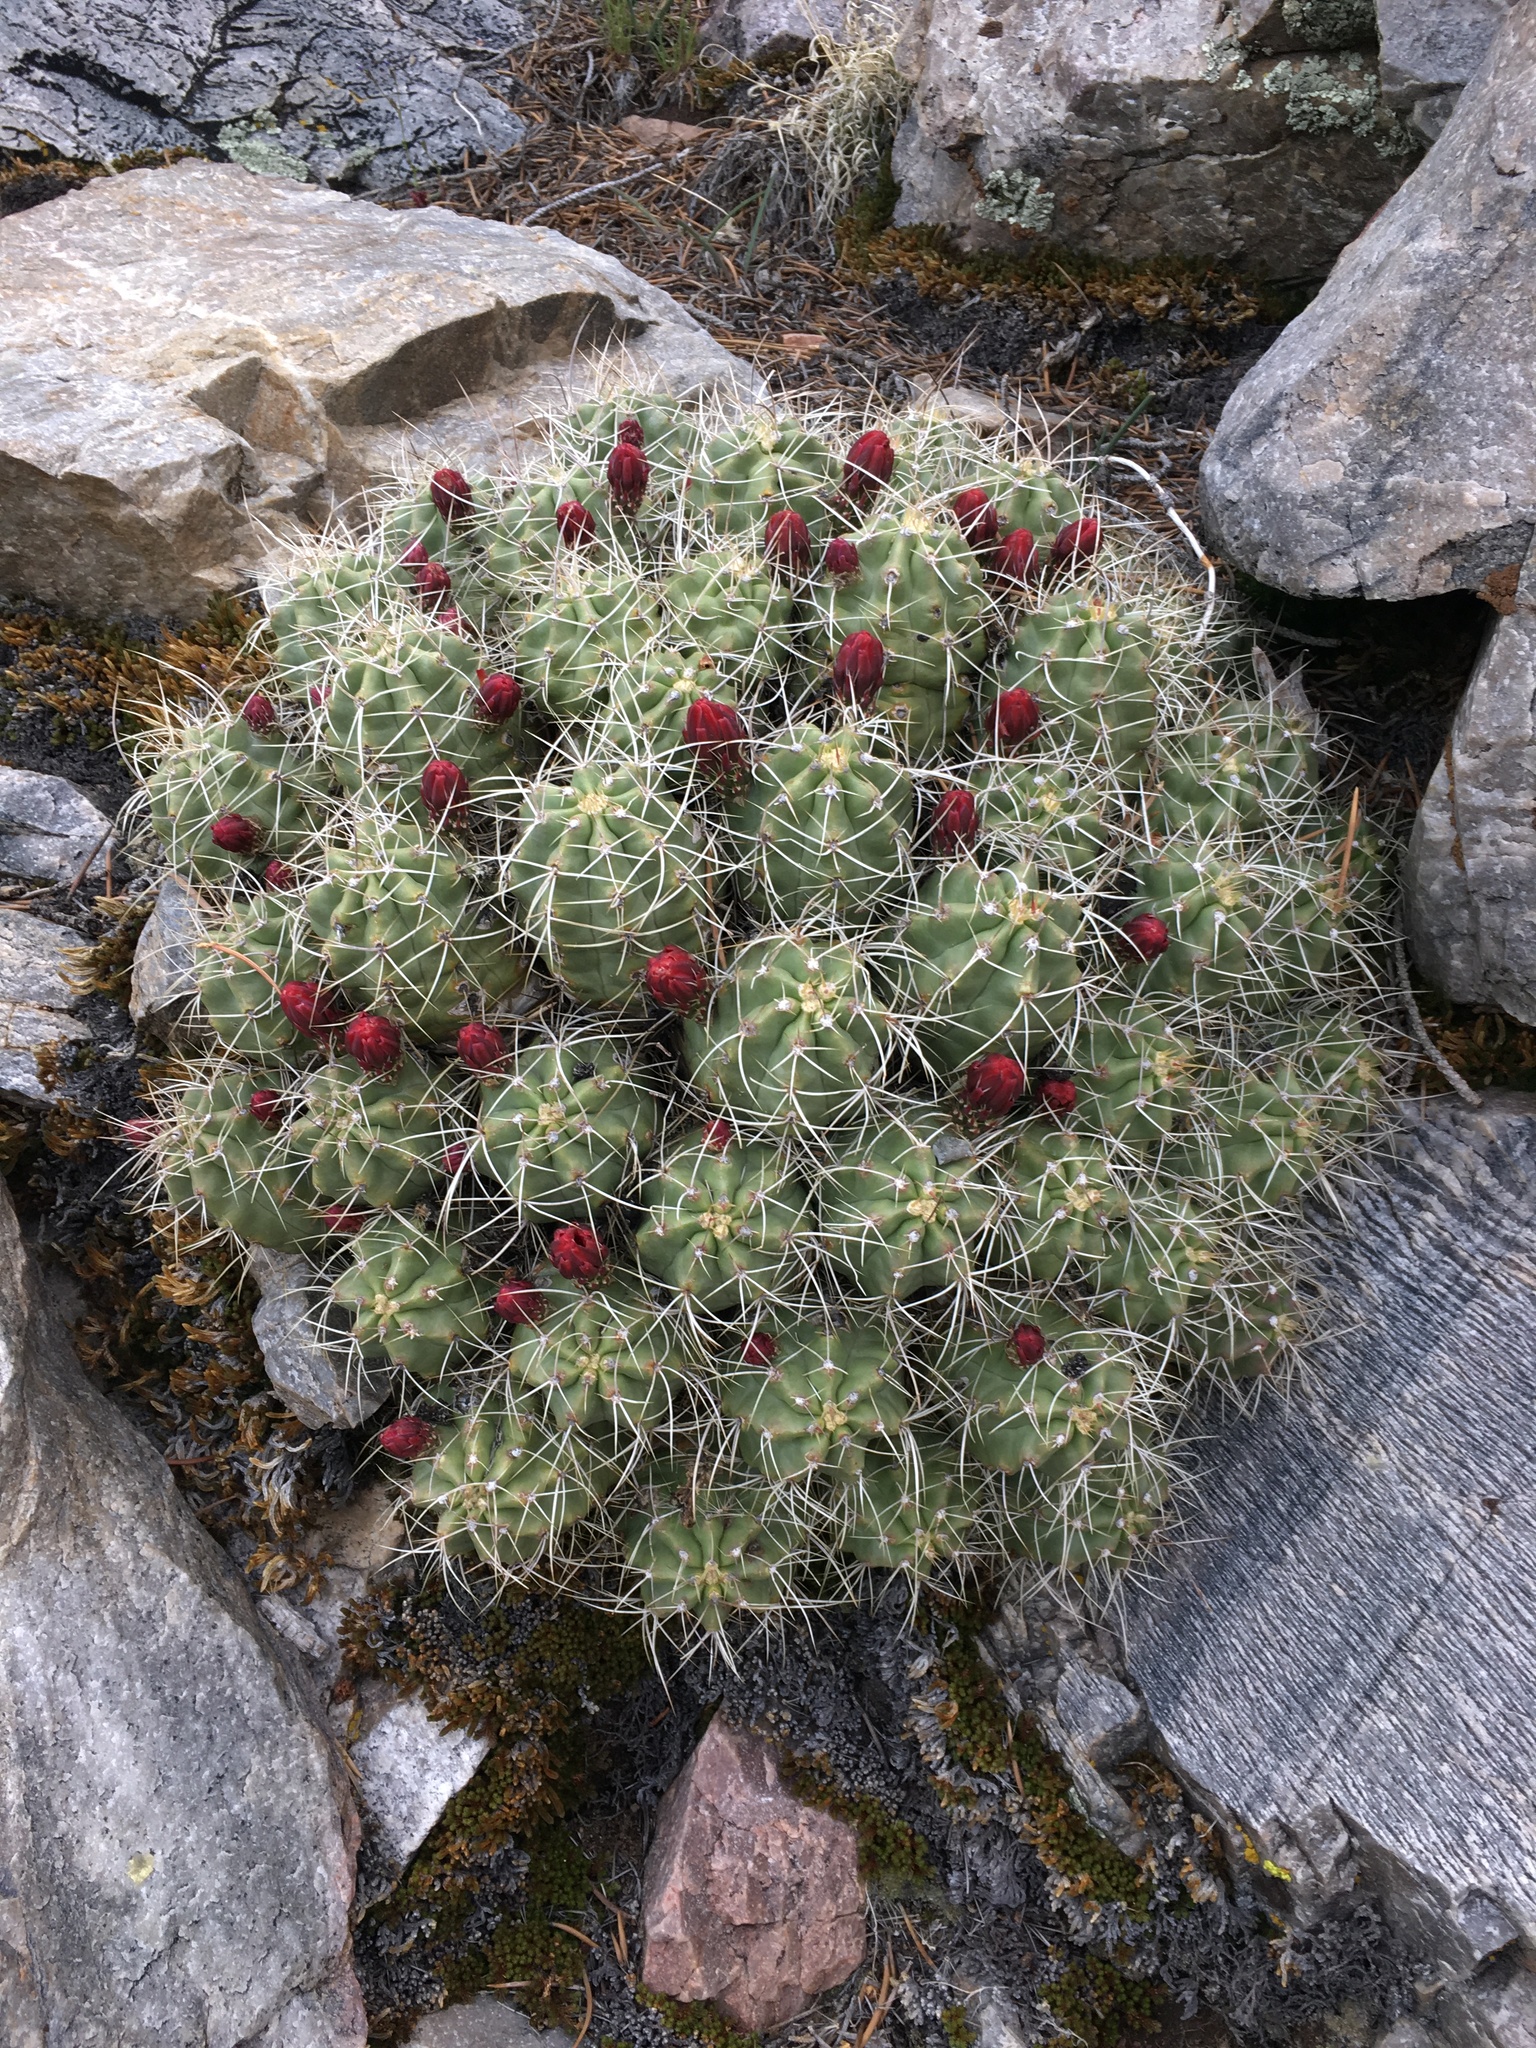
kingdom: Plantae
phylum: Tracheophyta
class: Magnoliopsida
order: Caryophyllales
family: Cactaceae
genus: Echinocereus
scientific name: Echinocereus triglochidiatus
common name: Claretcup hedgehog
